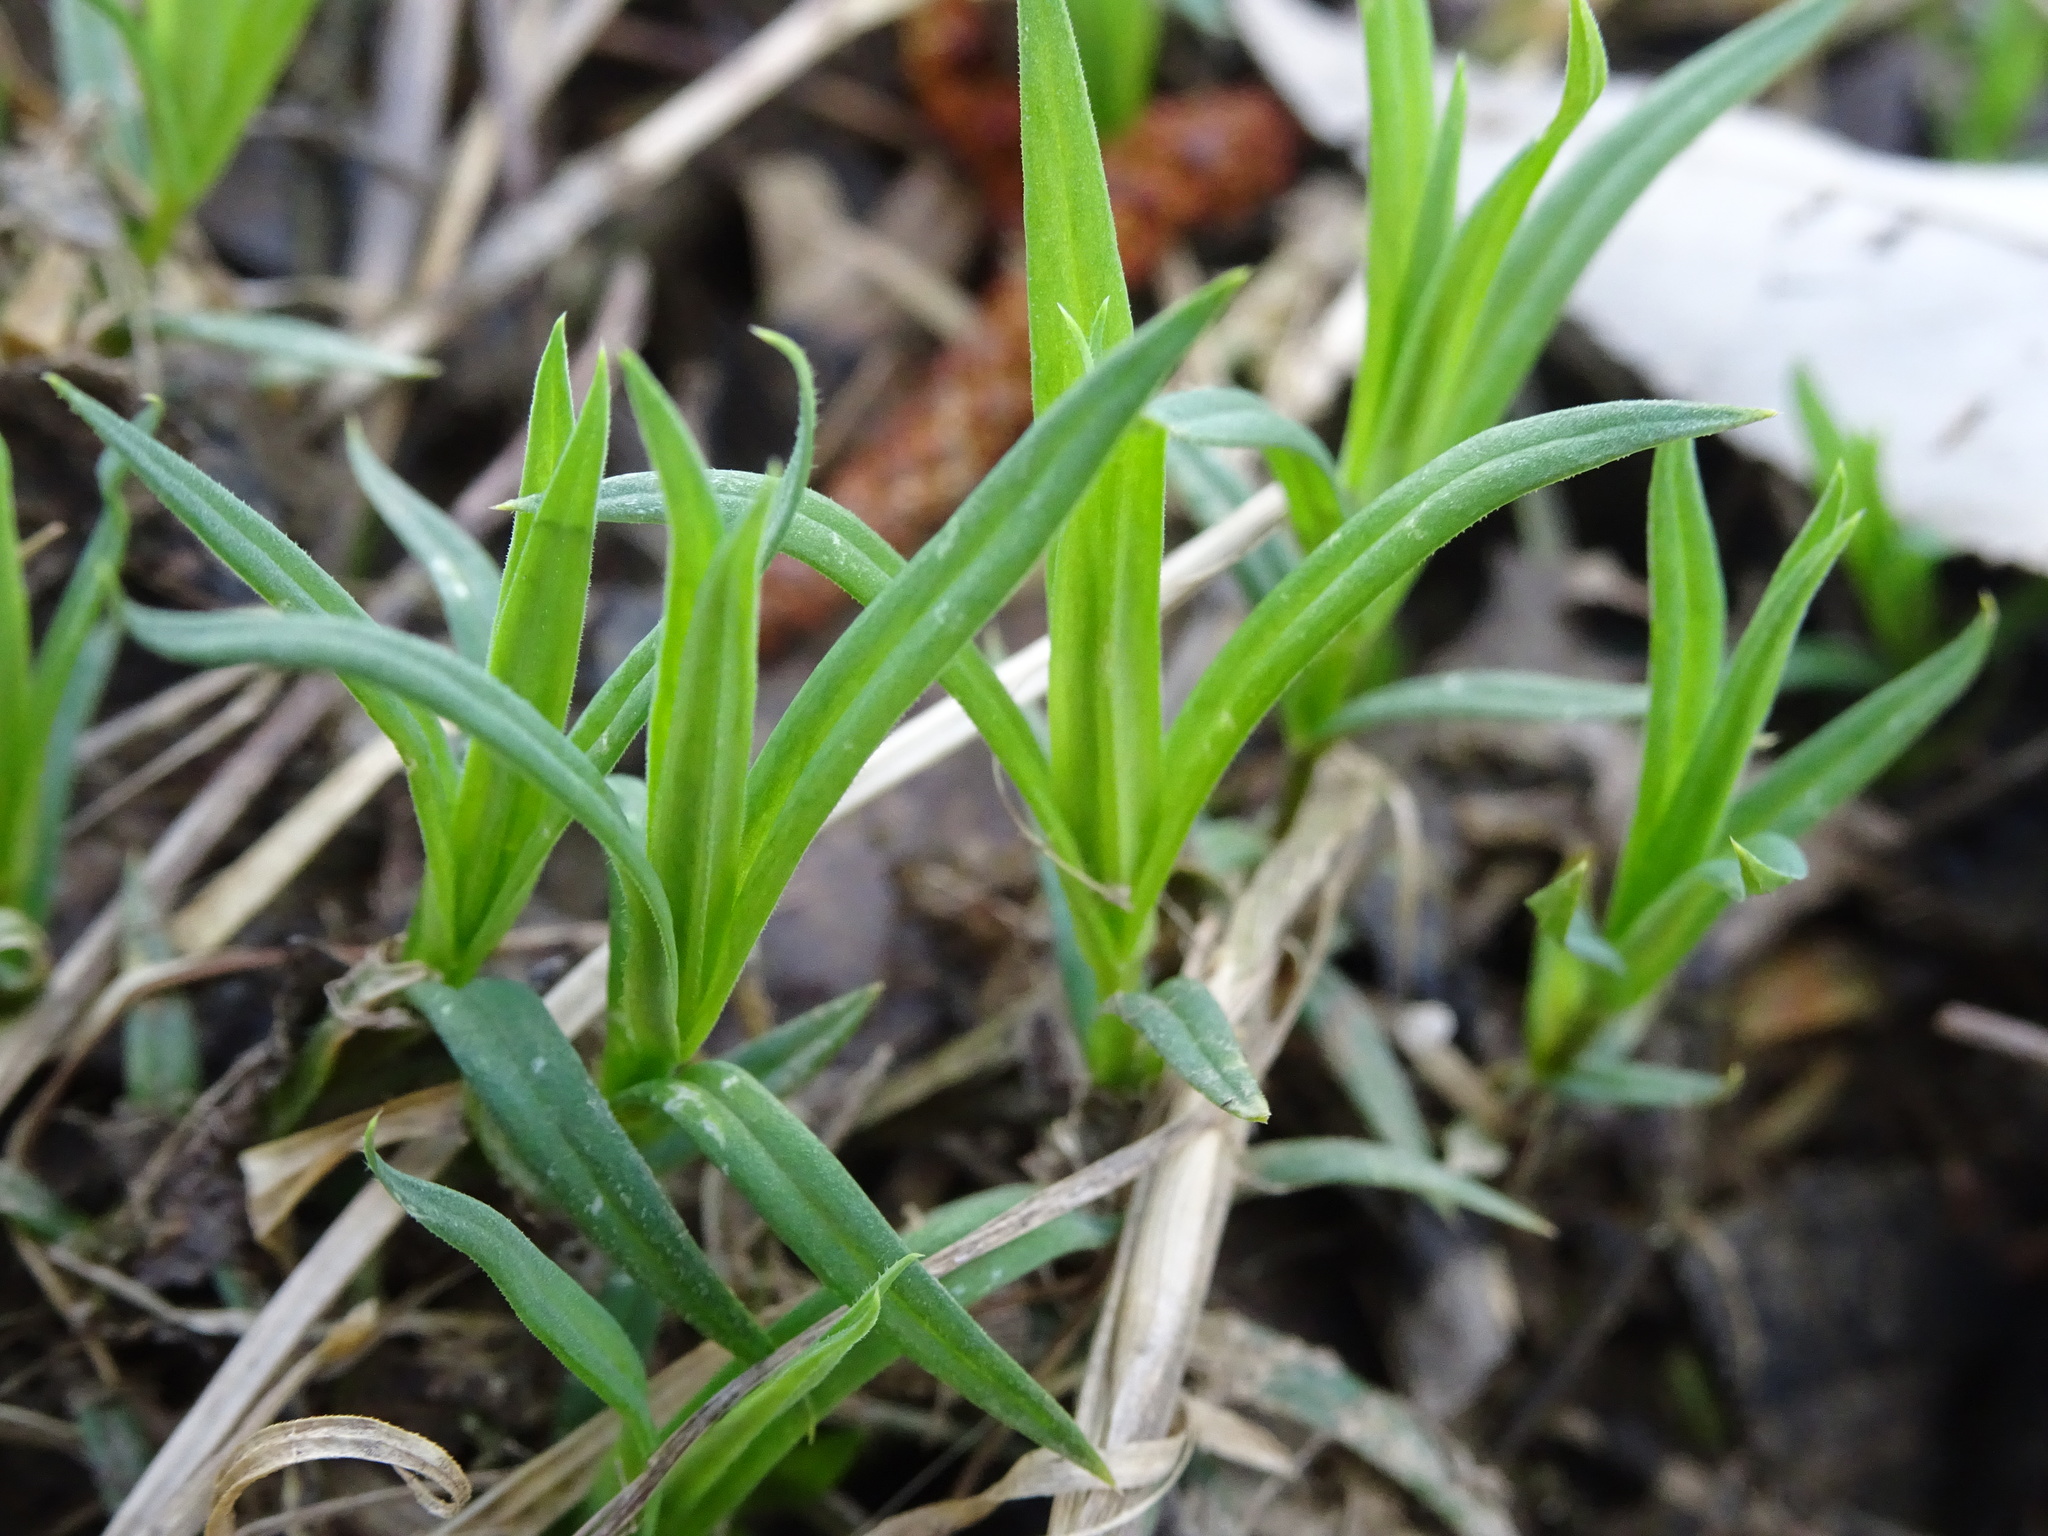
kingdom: Plantae
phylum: Tracheophyta
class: Magnoliopsida
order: Caryophyllales
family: Caryophyllaceae
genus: Rabelera
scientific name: Rabelera holostea
